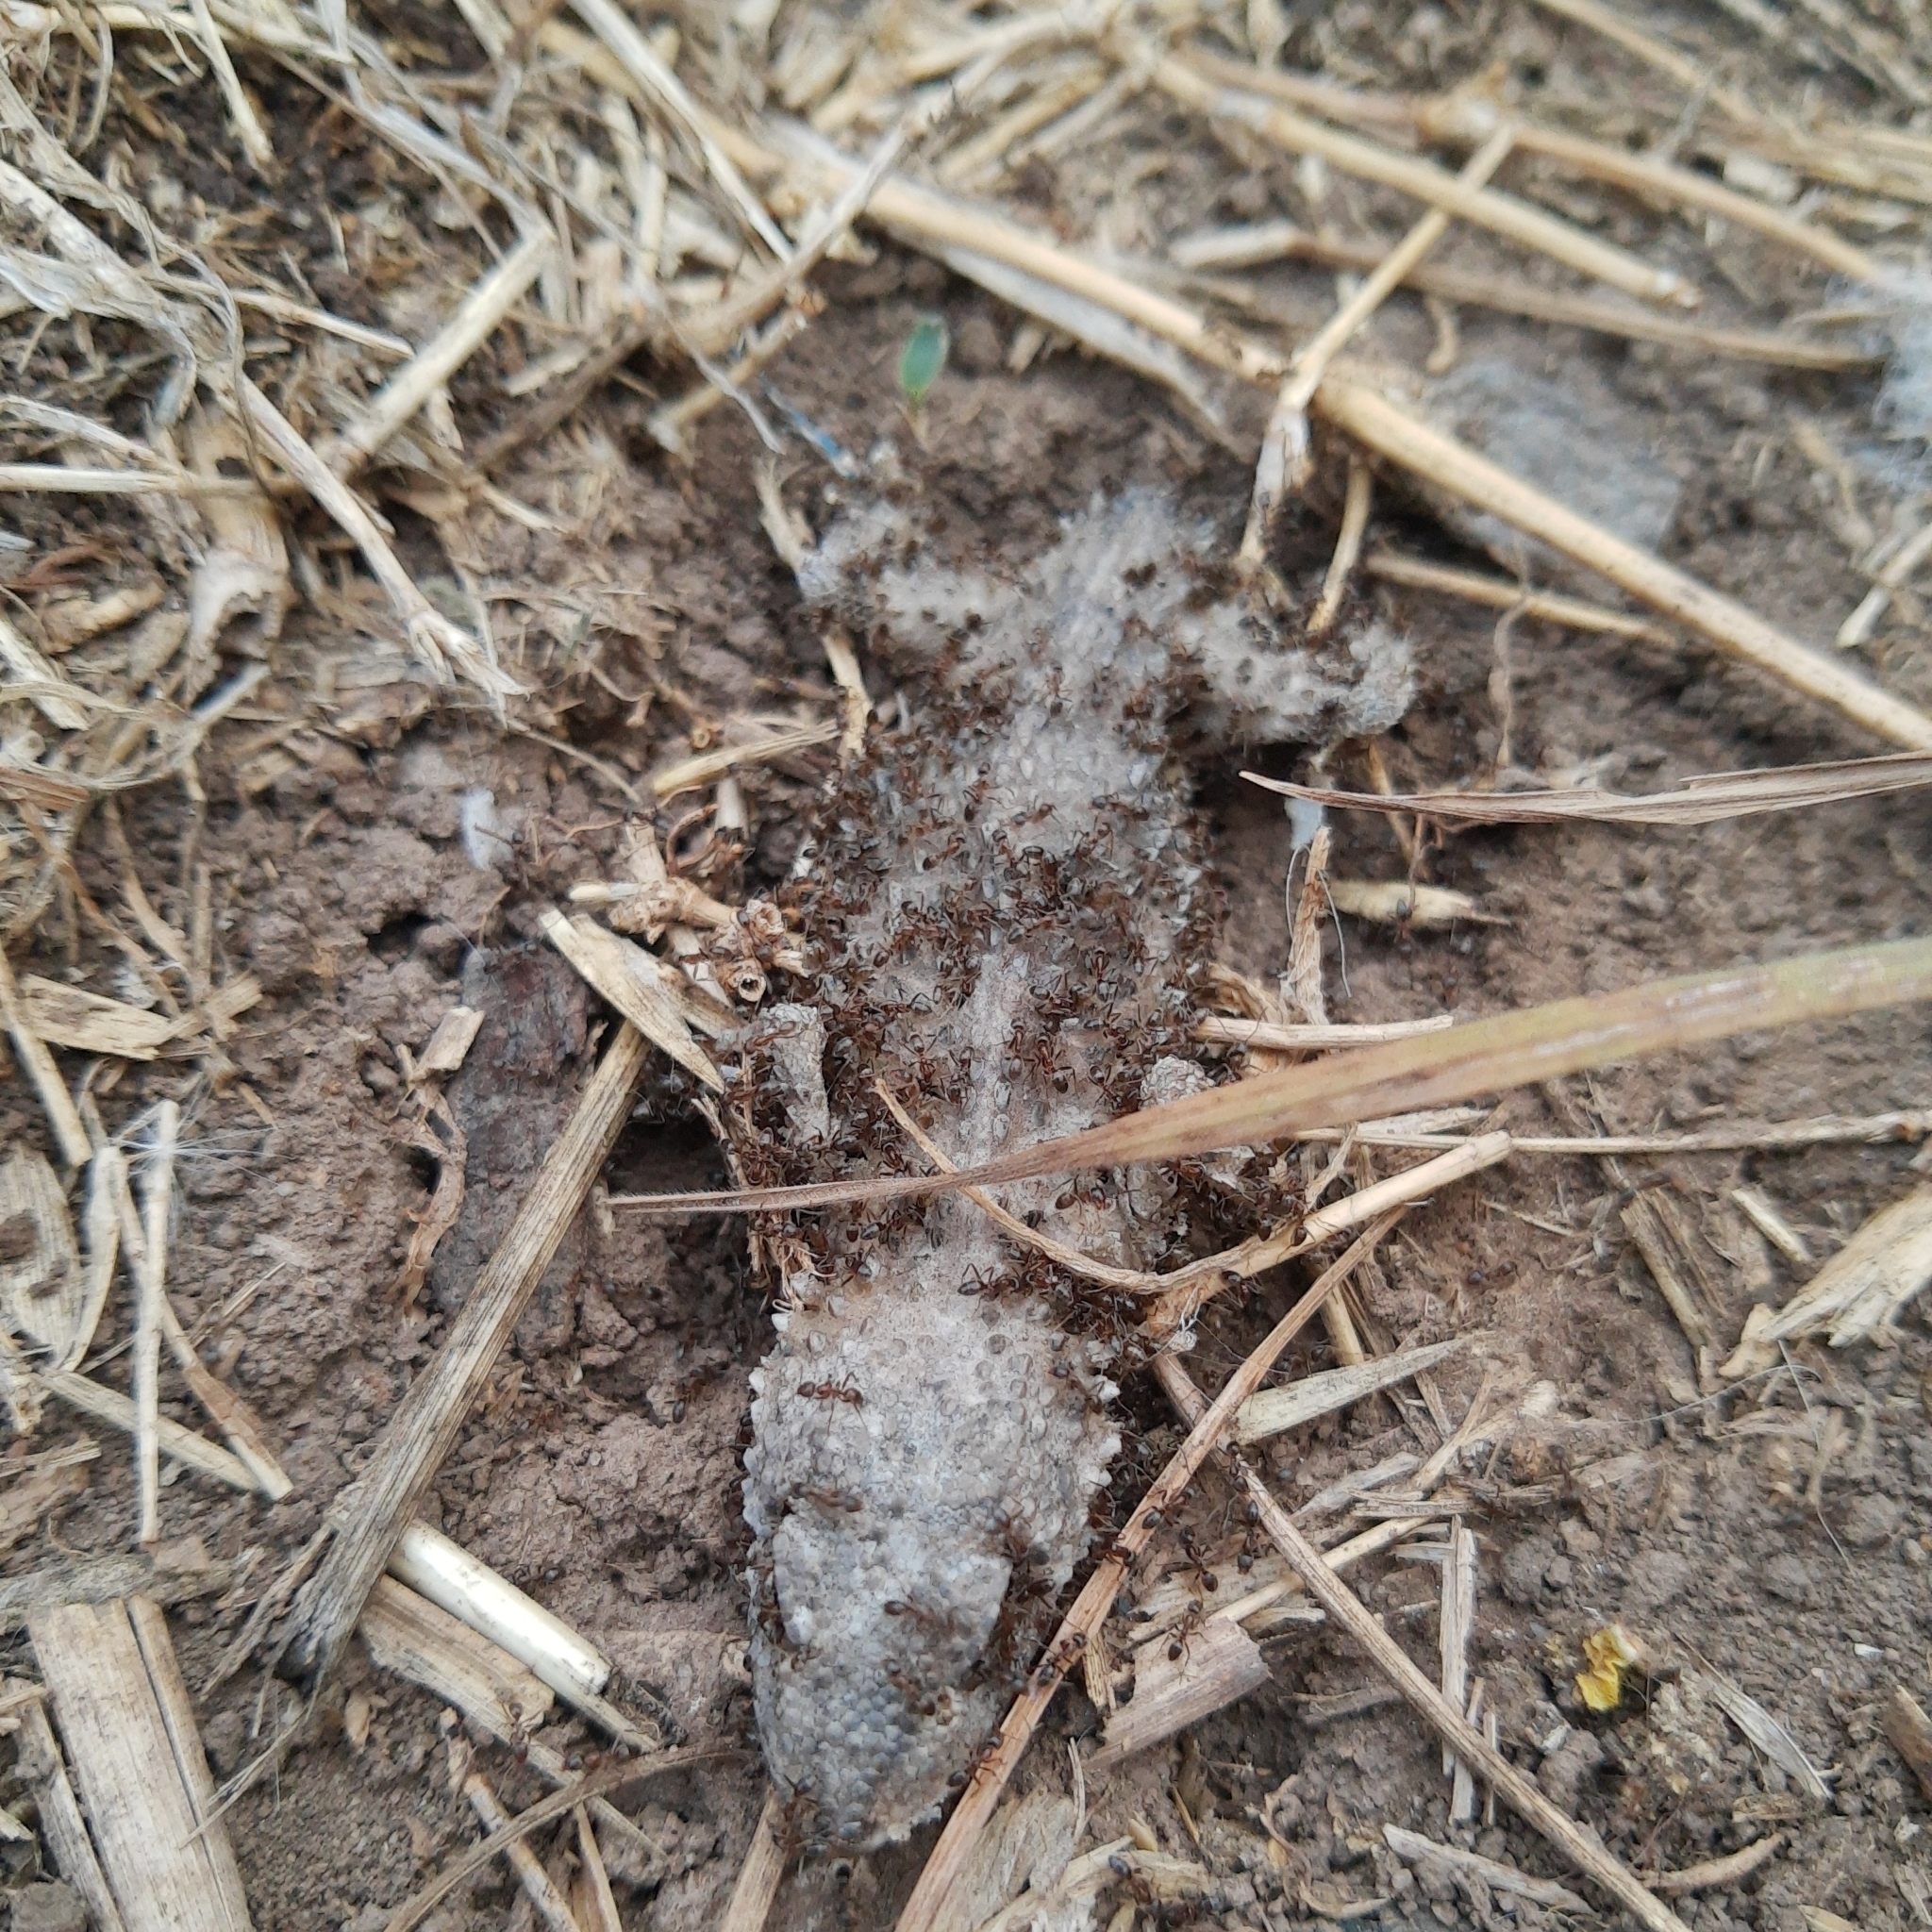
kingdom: Animalia
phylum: Chordata
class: Squamata
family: Phyllodactylidae
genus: Tarentola
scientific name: Tarentola mauritanica
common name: Moorish gecko
